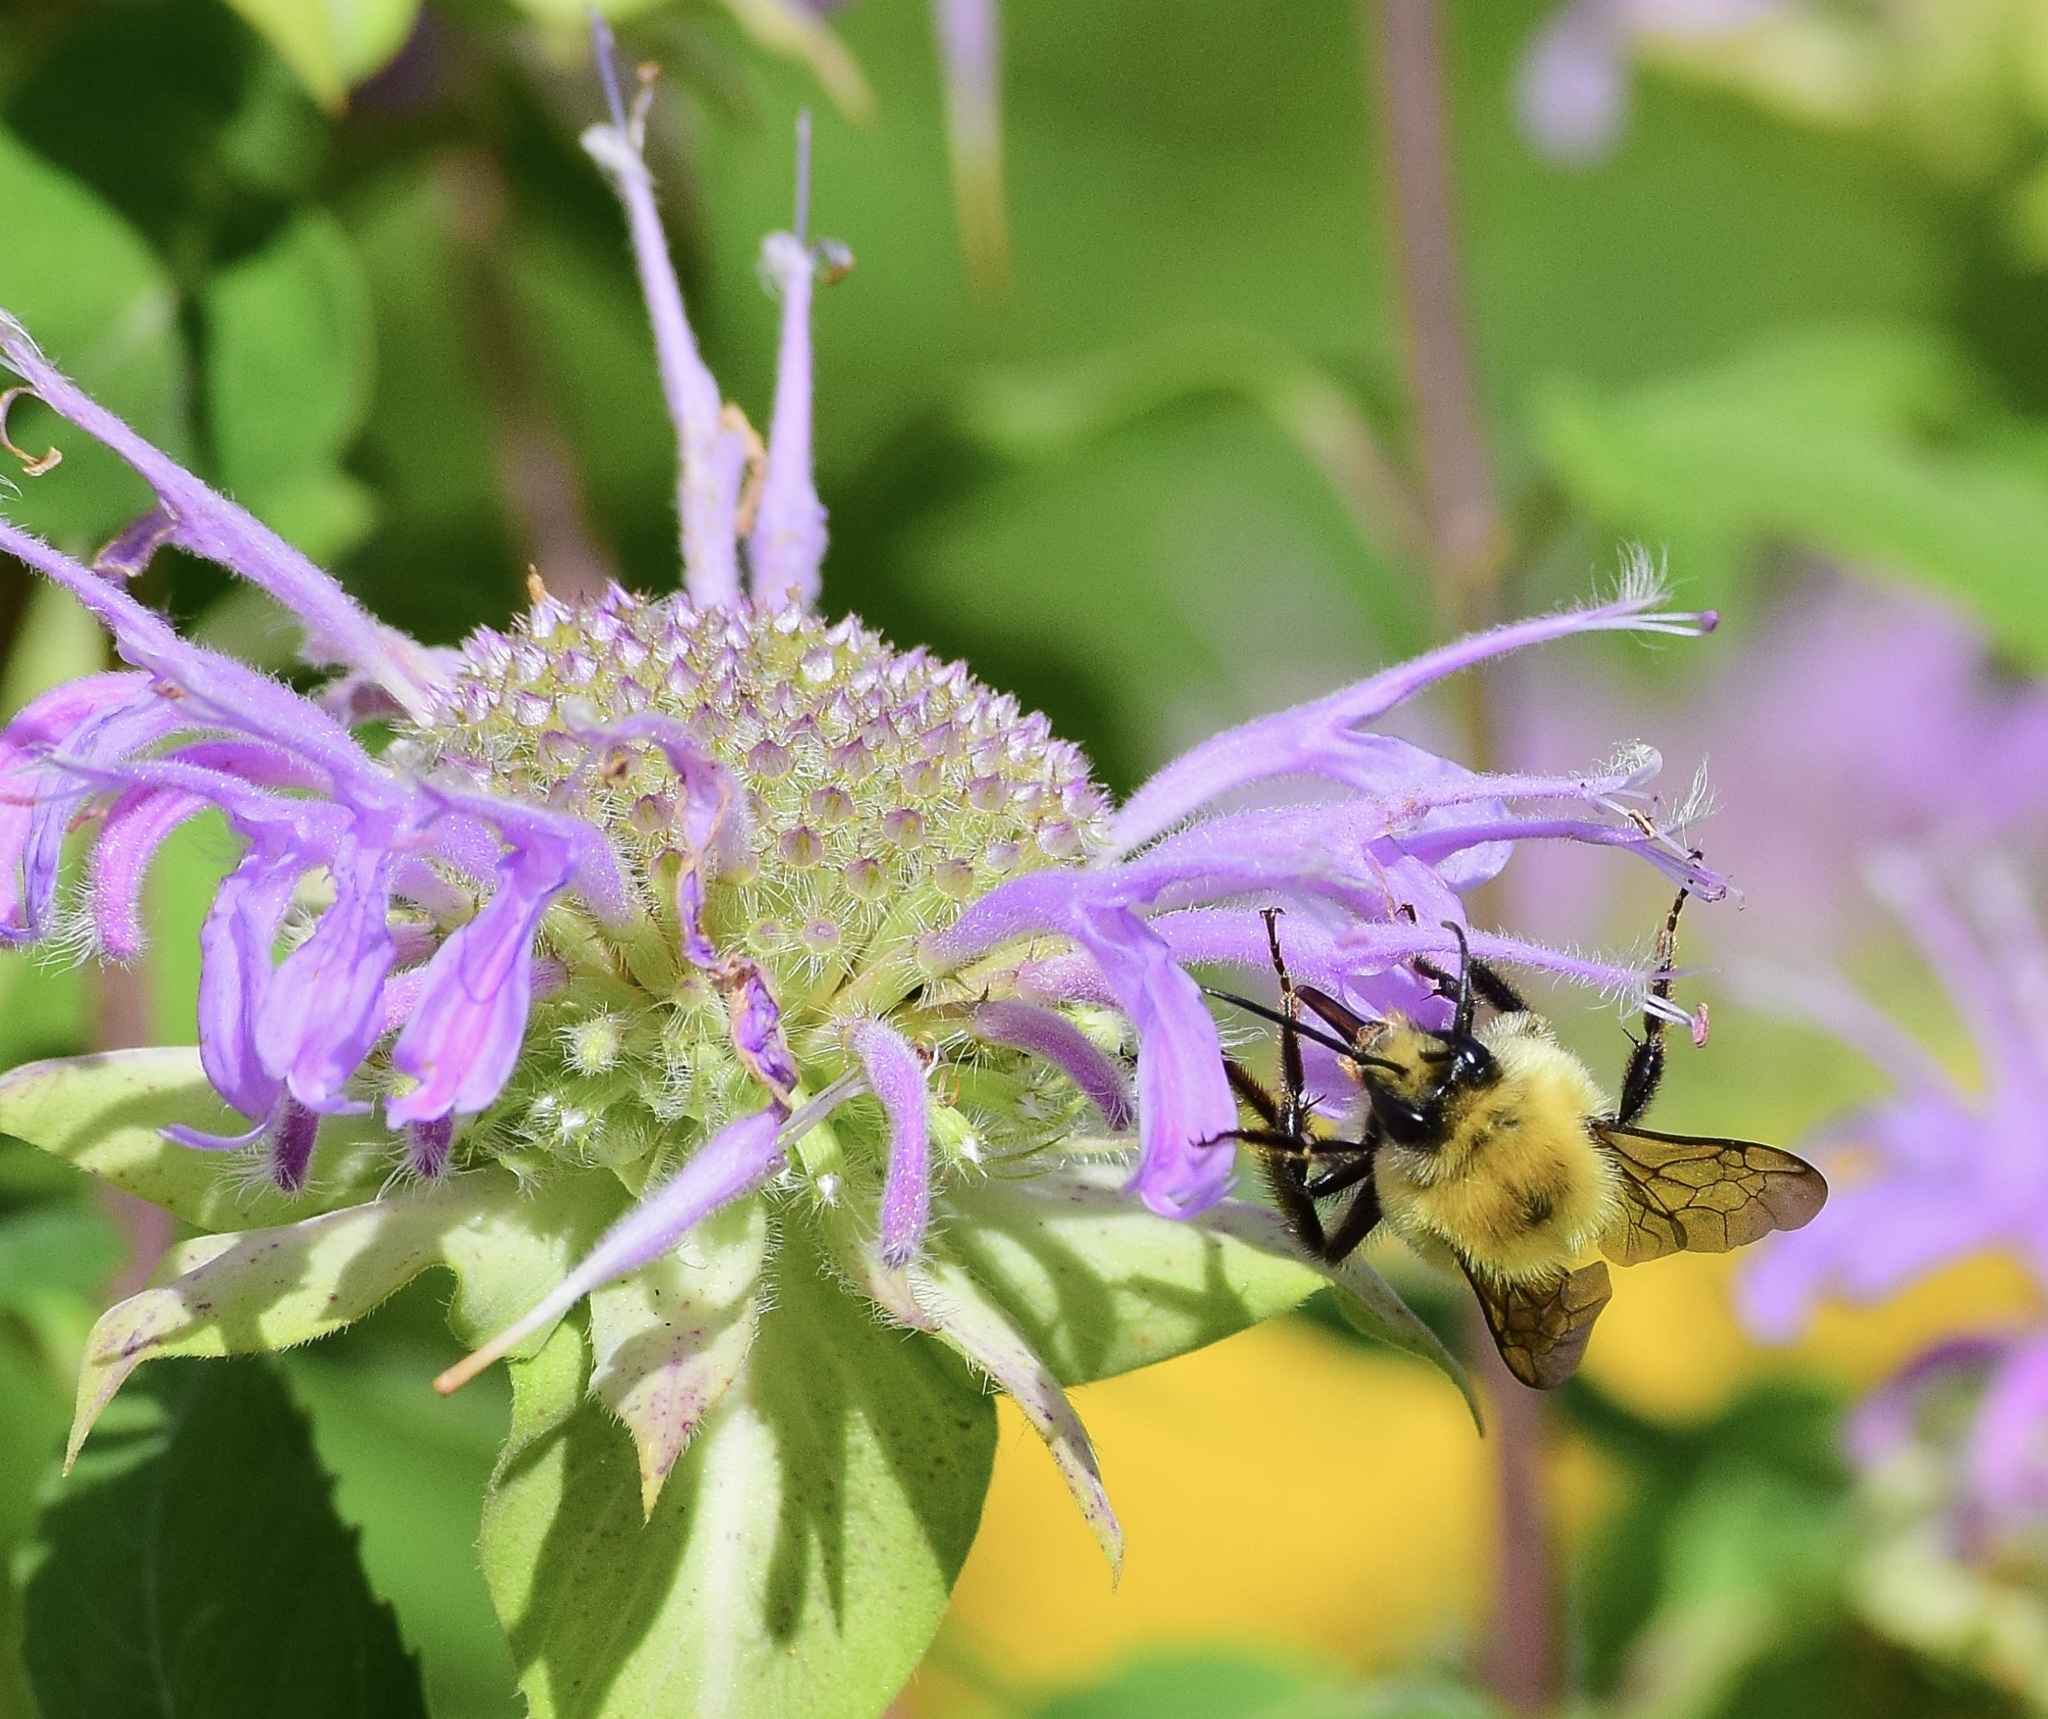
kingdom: Animalia
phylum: Arthropoda
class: Insecta
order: Hymenoptera
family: Apidae
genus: Bombus
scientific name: Bombus bimaculatus
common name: Two-spotted bumble bee
